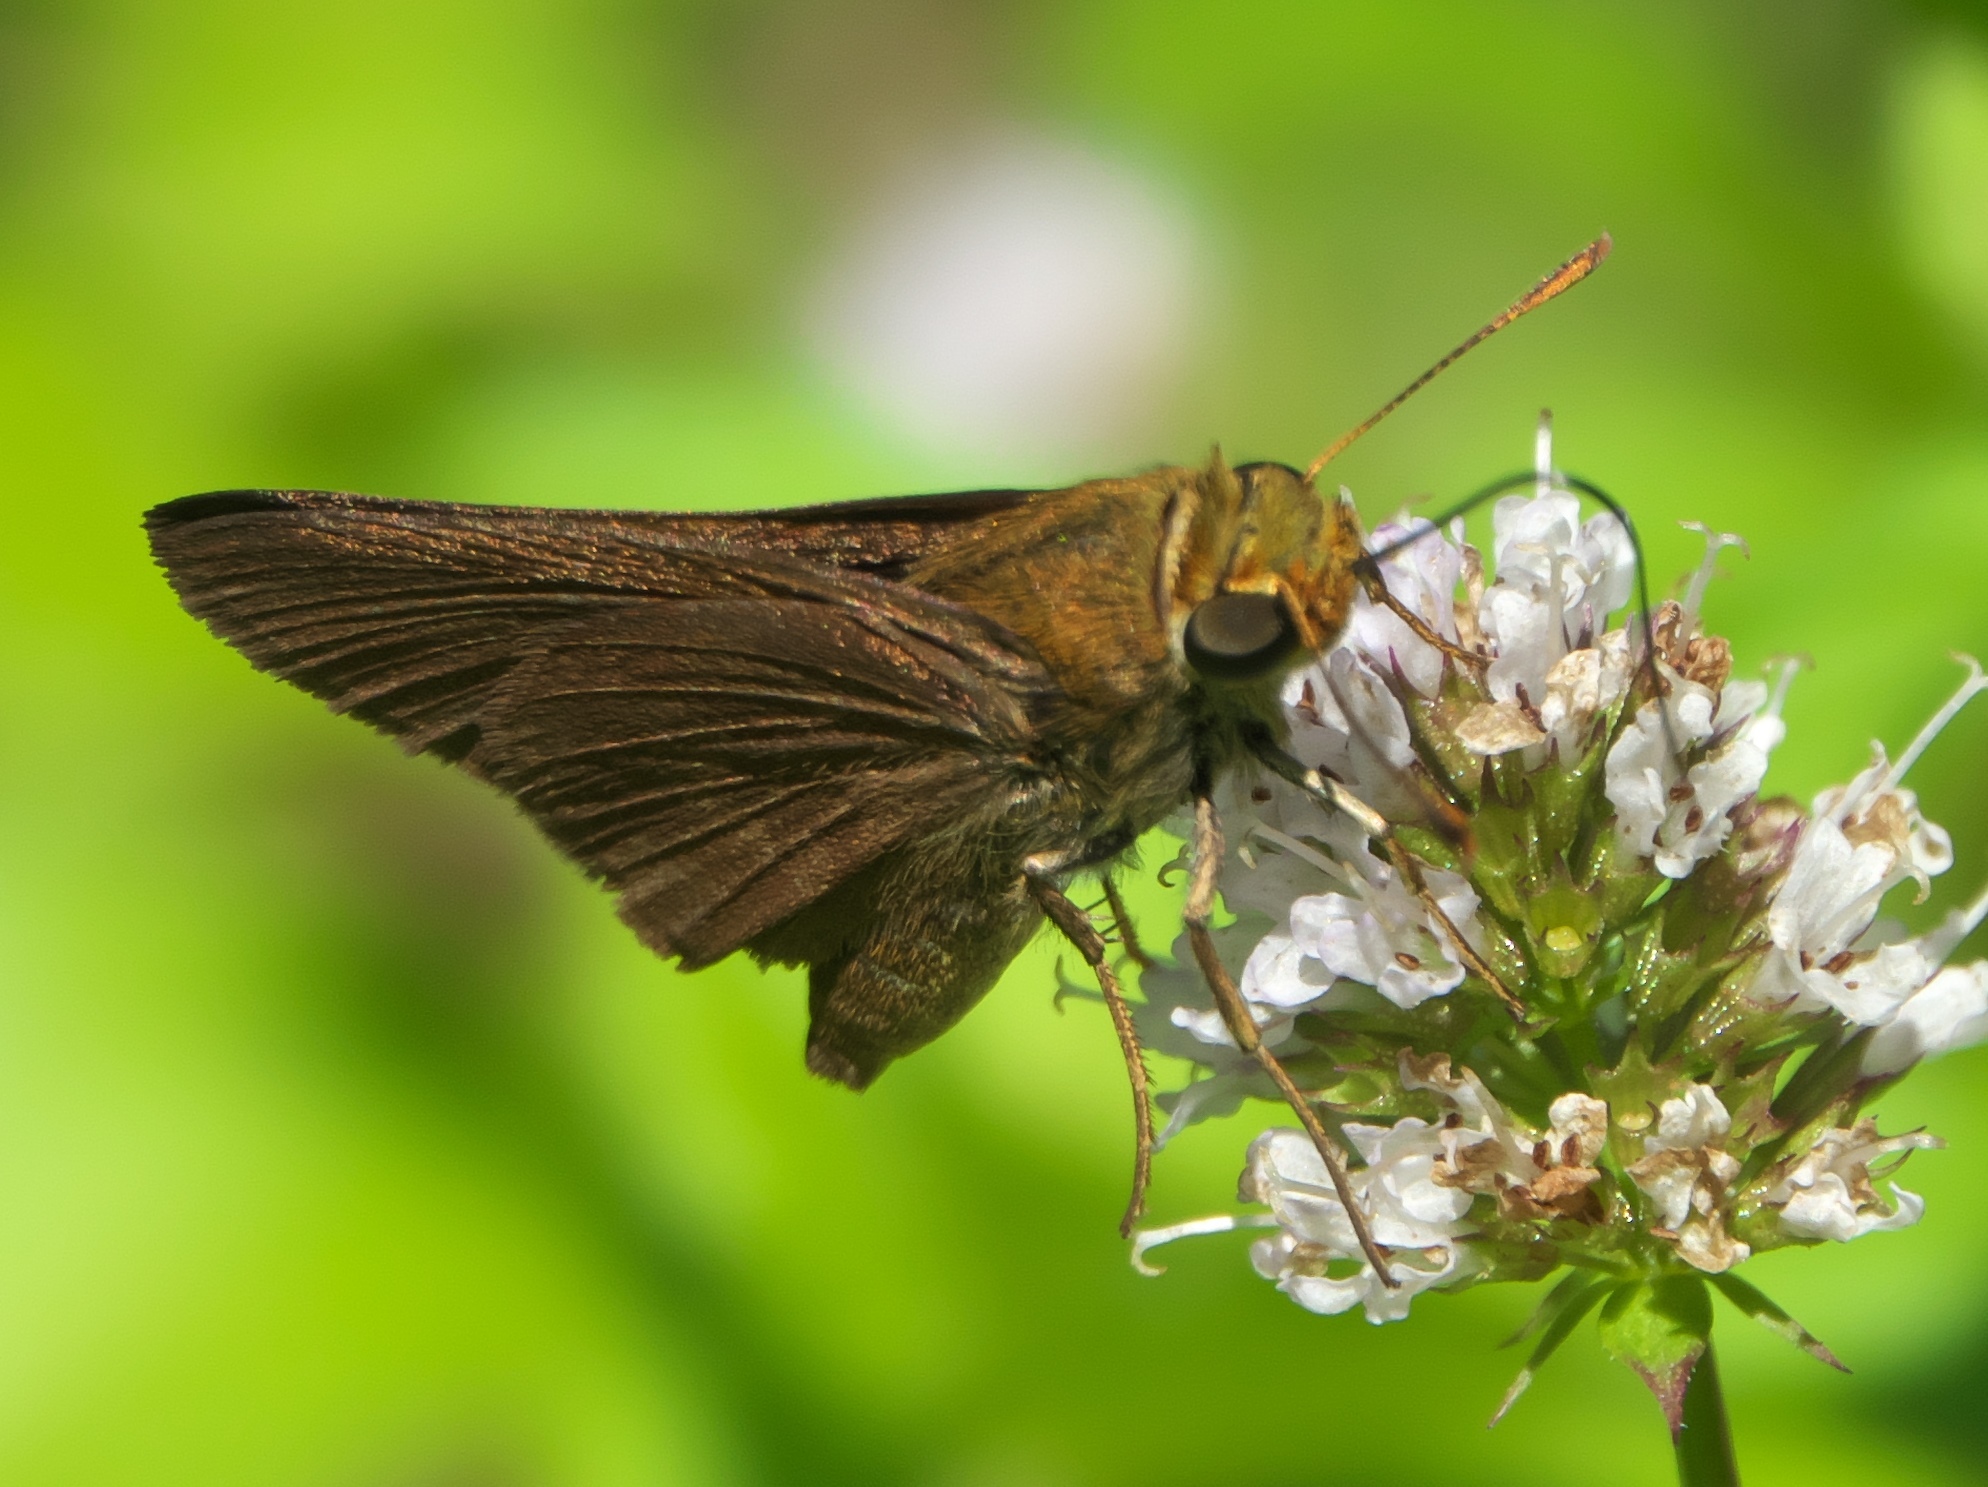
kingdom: Animalia
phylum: Arthropoda
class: Insecta
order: Lepidoptera
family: Hesperiidae
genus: Euphyes
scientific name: Euphyes vestris
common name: Dun skipper
